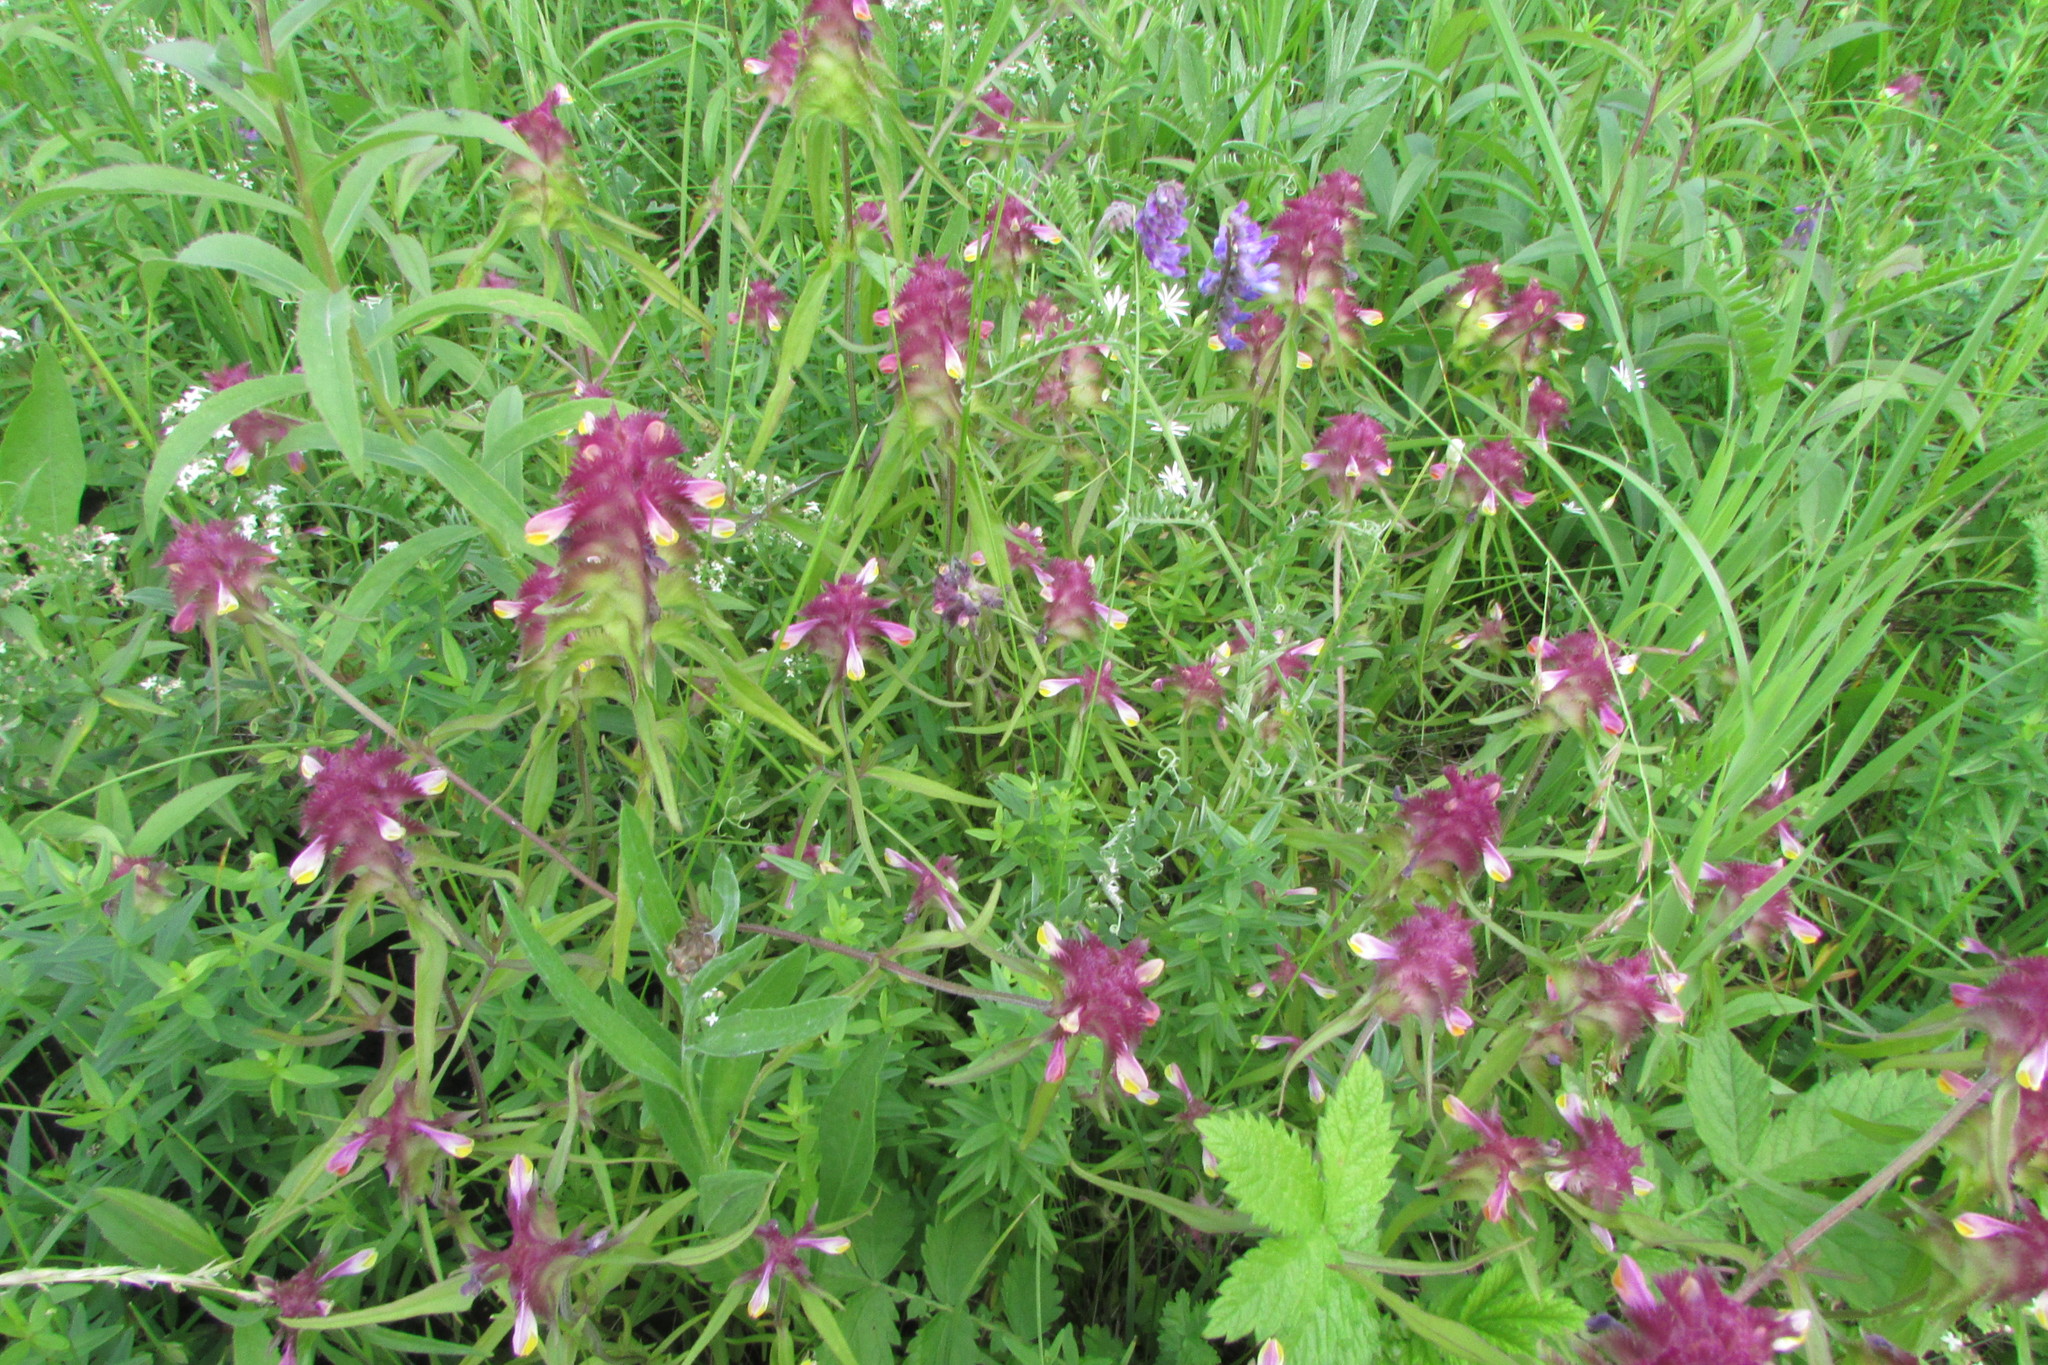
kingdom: Plantae
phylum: Tracheophyta
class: Magnoliopsida
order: Lamiales
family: Orobanchaceae
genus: Melampyrum
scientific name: Melampyrum cristatum
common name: Crested cow-wheat
